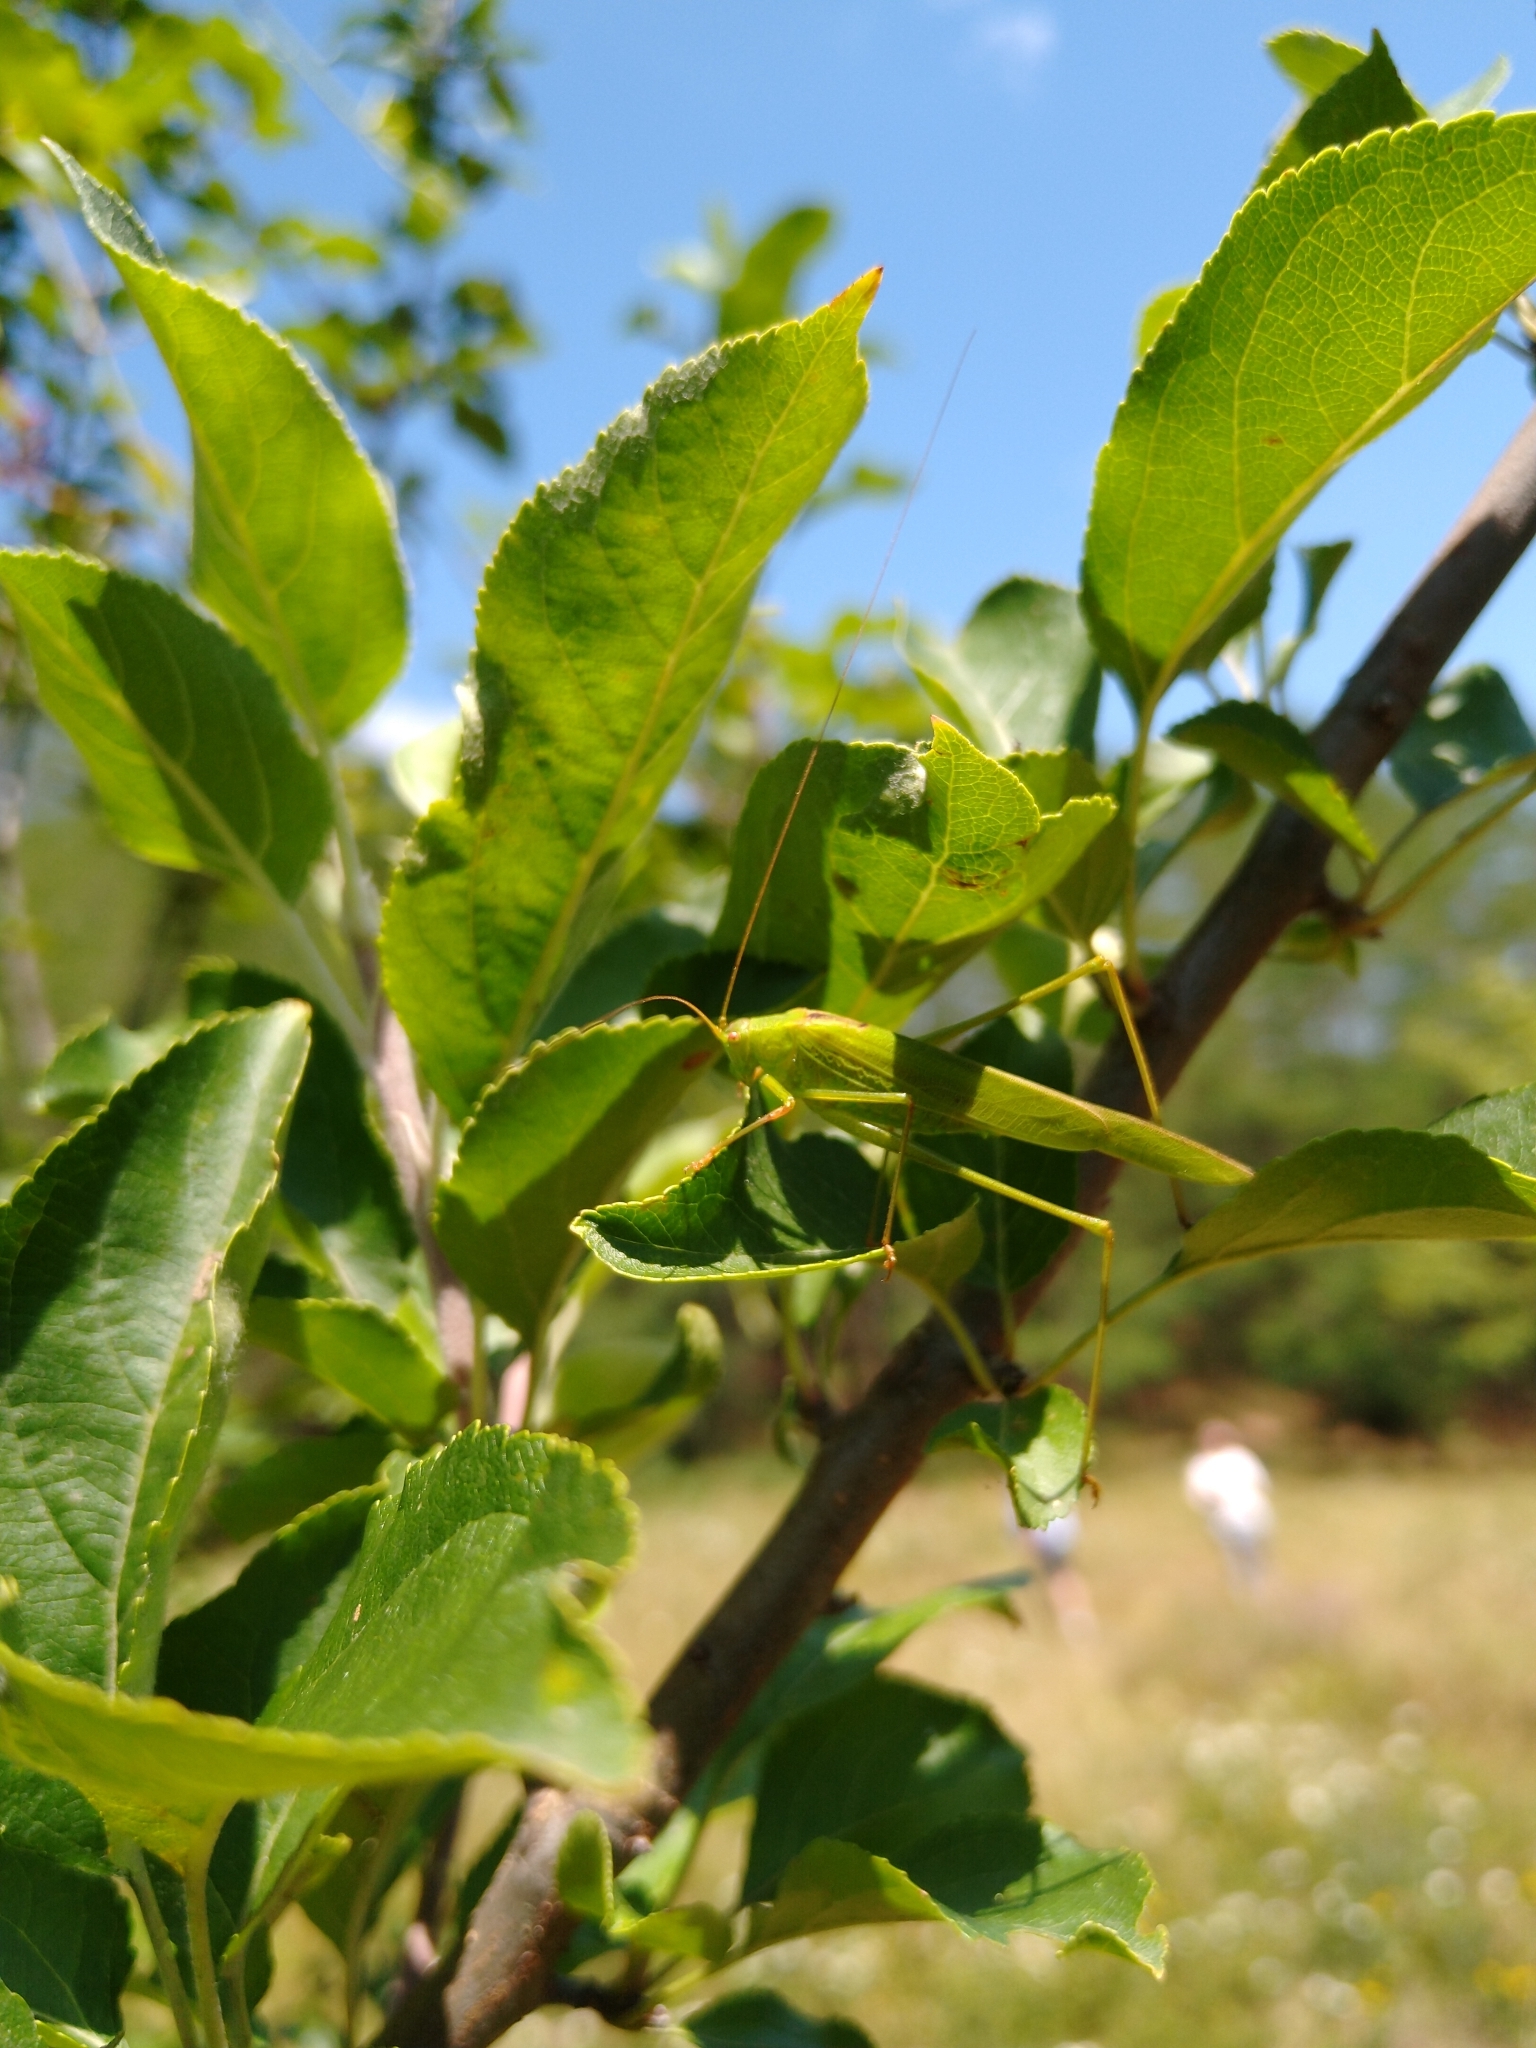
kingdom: Animalia
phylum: Arthropoda
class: Insecta
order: Orthoptera
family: Tettigoniidae
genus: Phaneroptera
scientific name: Phaneroptera falcata
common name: Sickle-bearing bush-cricket
